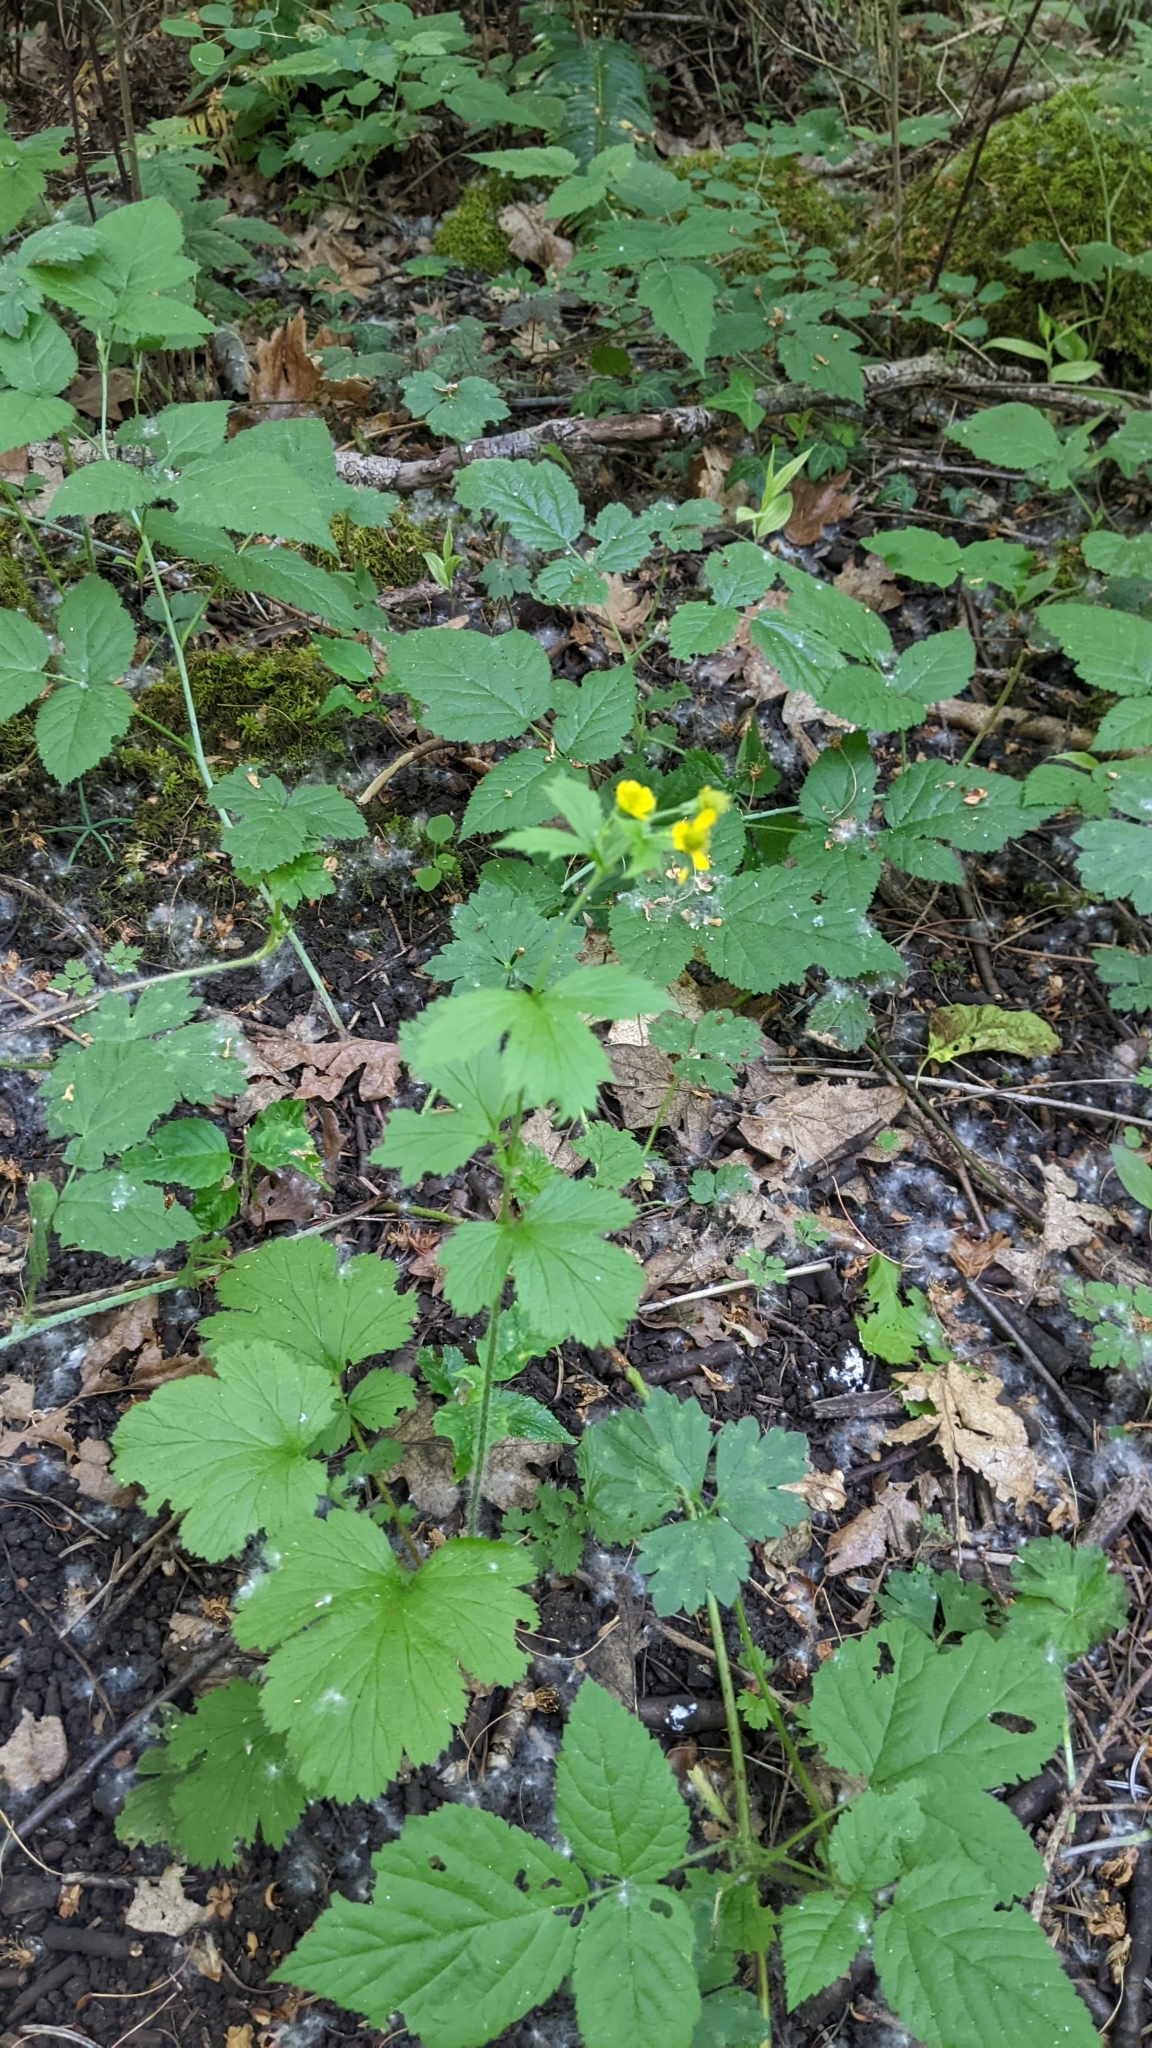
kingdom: Plantae
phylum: Tracheophyta
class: Magnoliopsida
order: Rosales
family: Rosaceae
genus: Geum
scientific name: Geum macrophyllum
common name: Large-leaved avens
